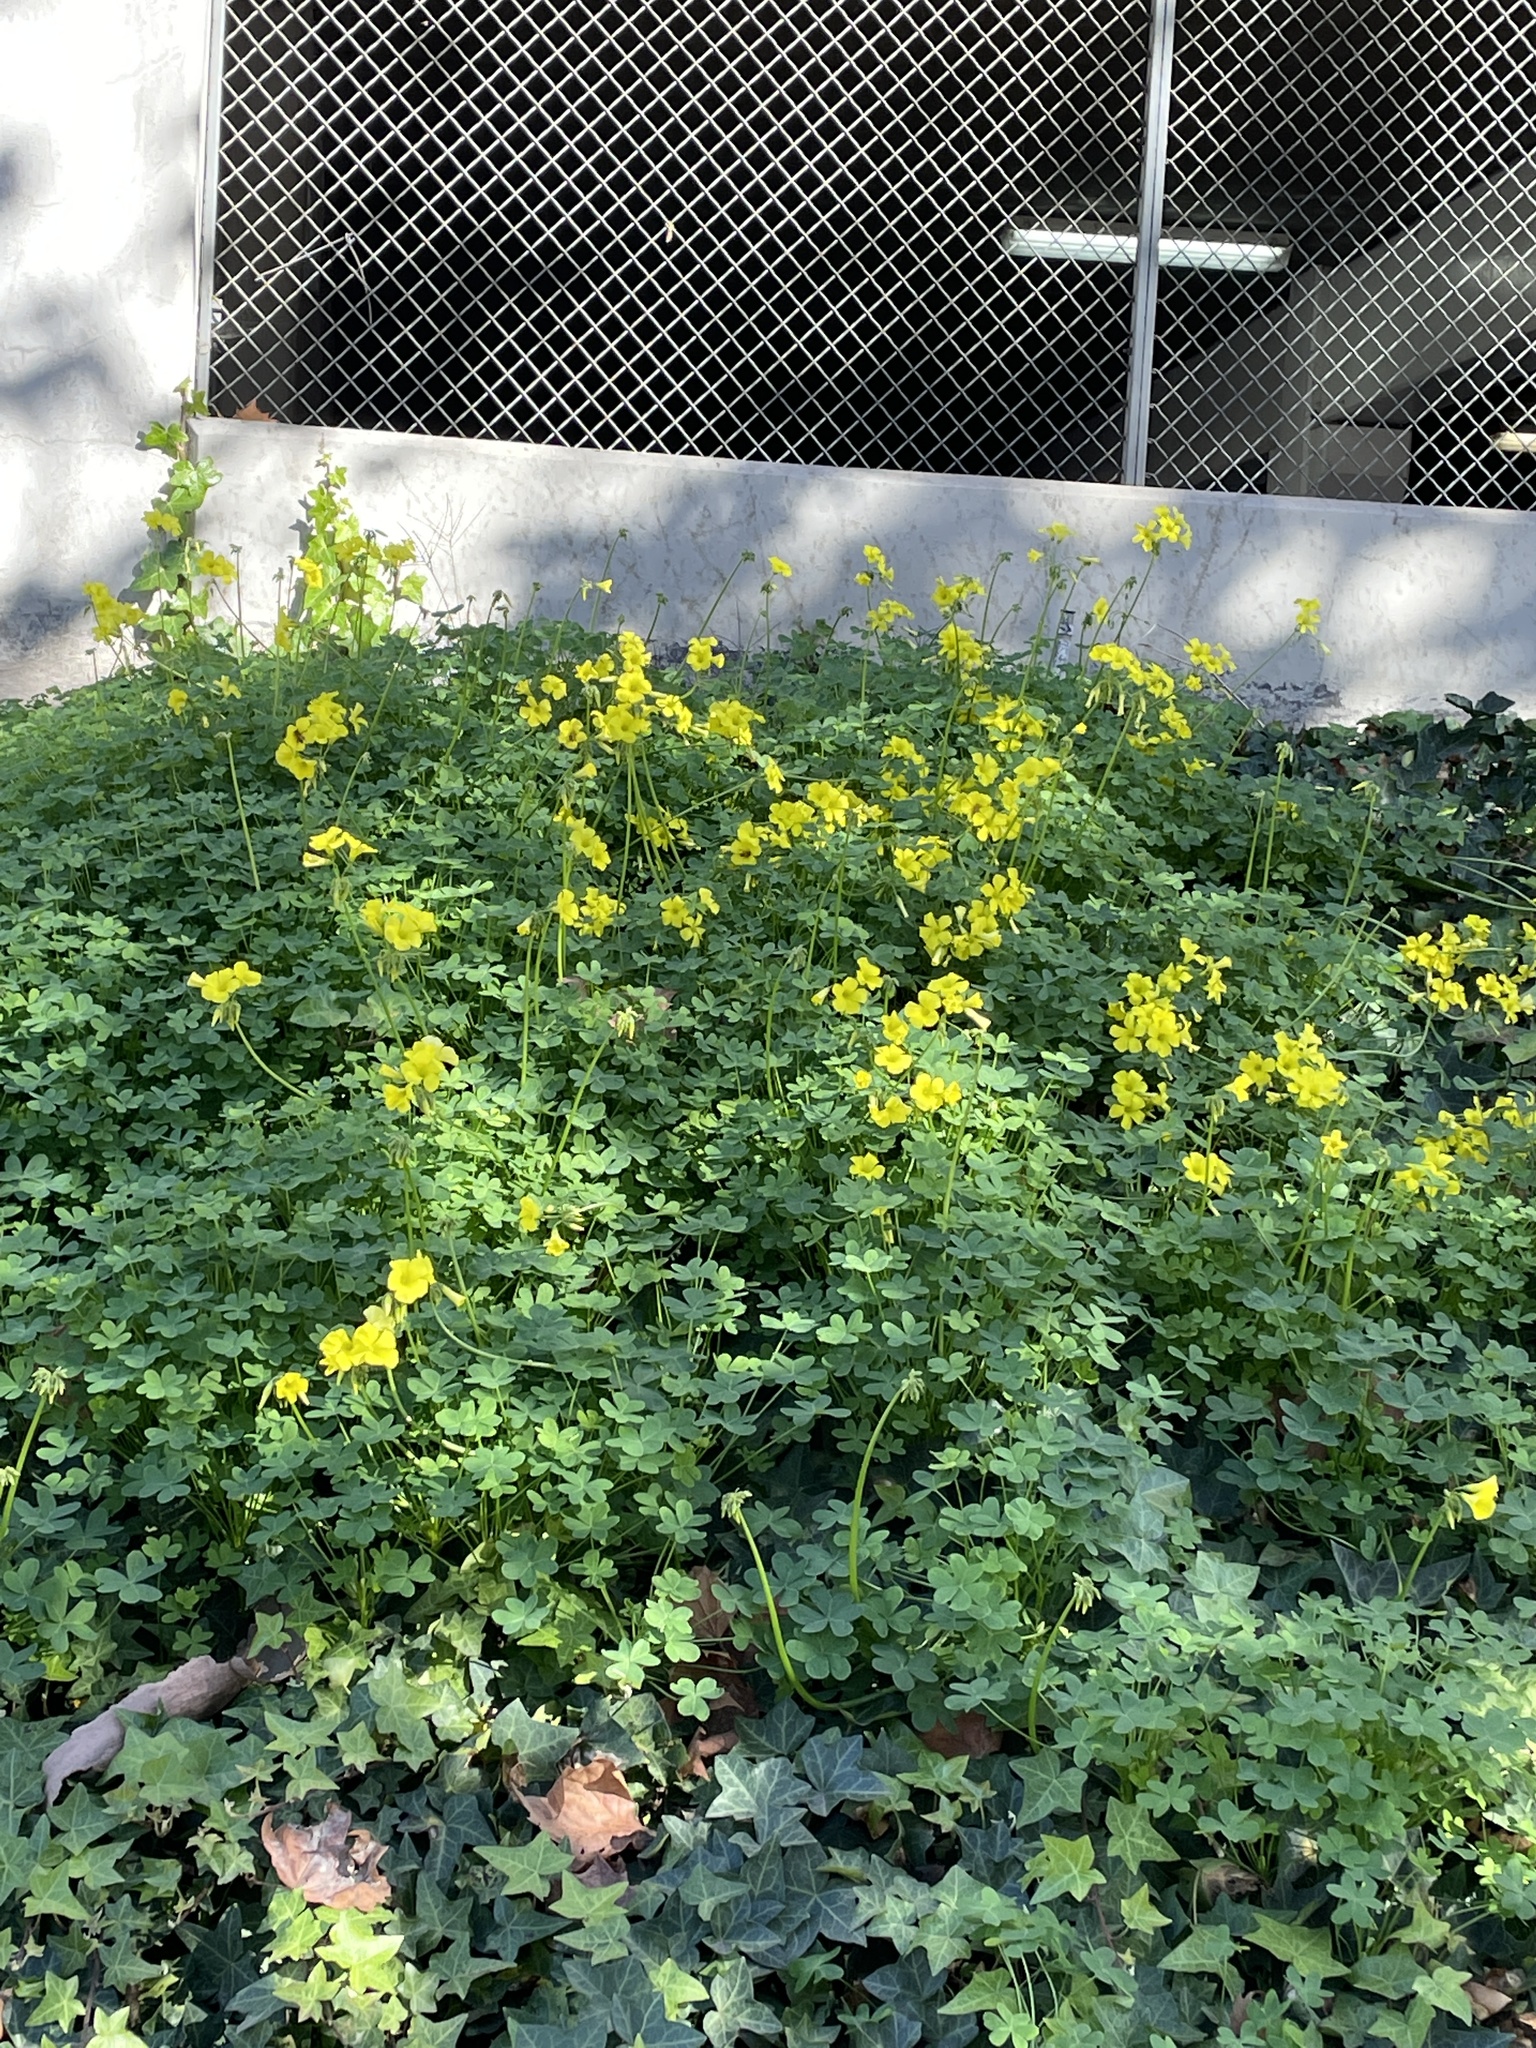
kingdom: Plantae
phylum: Tracheophyta
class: Magnoliopsida
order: Oxalidales
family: Oxalidaceae
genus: Oxalis
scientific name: Oxalis pes-caprae
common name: Bermuda-buttercup
